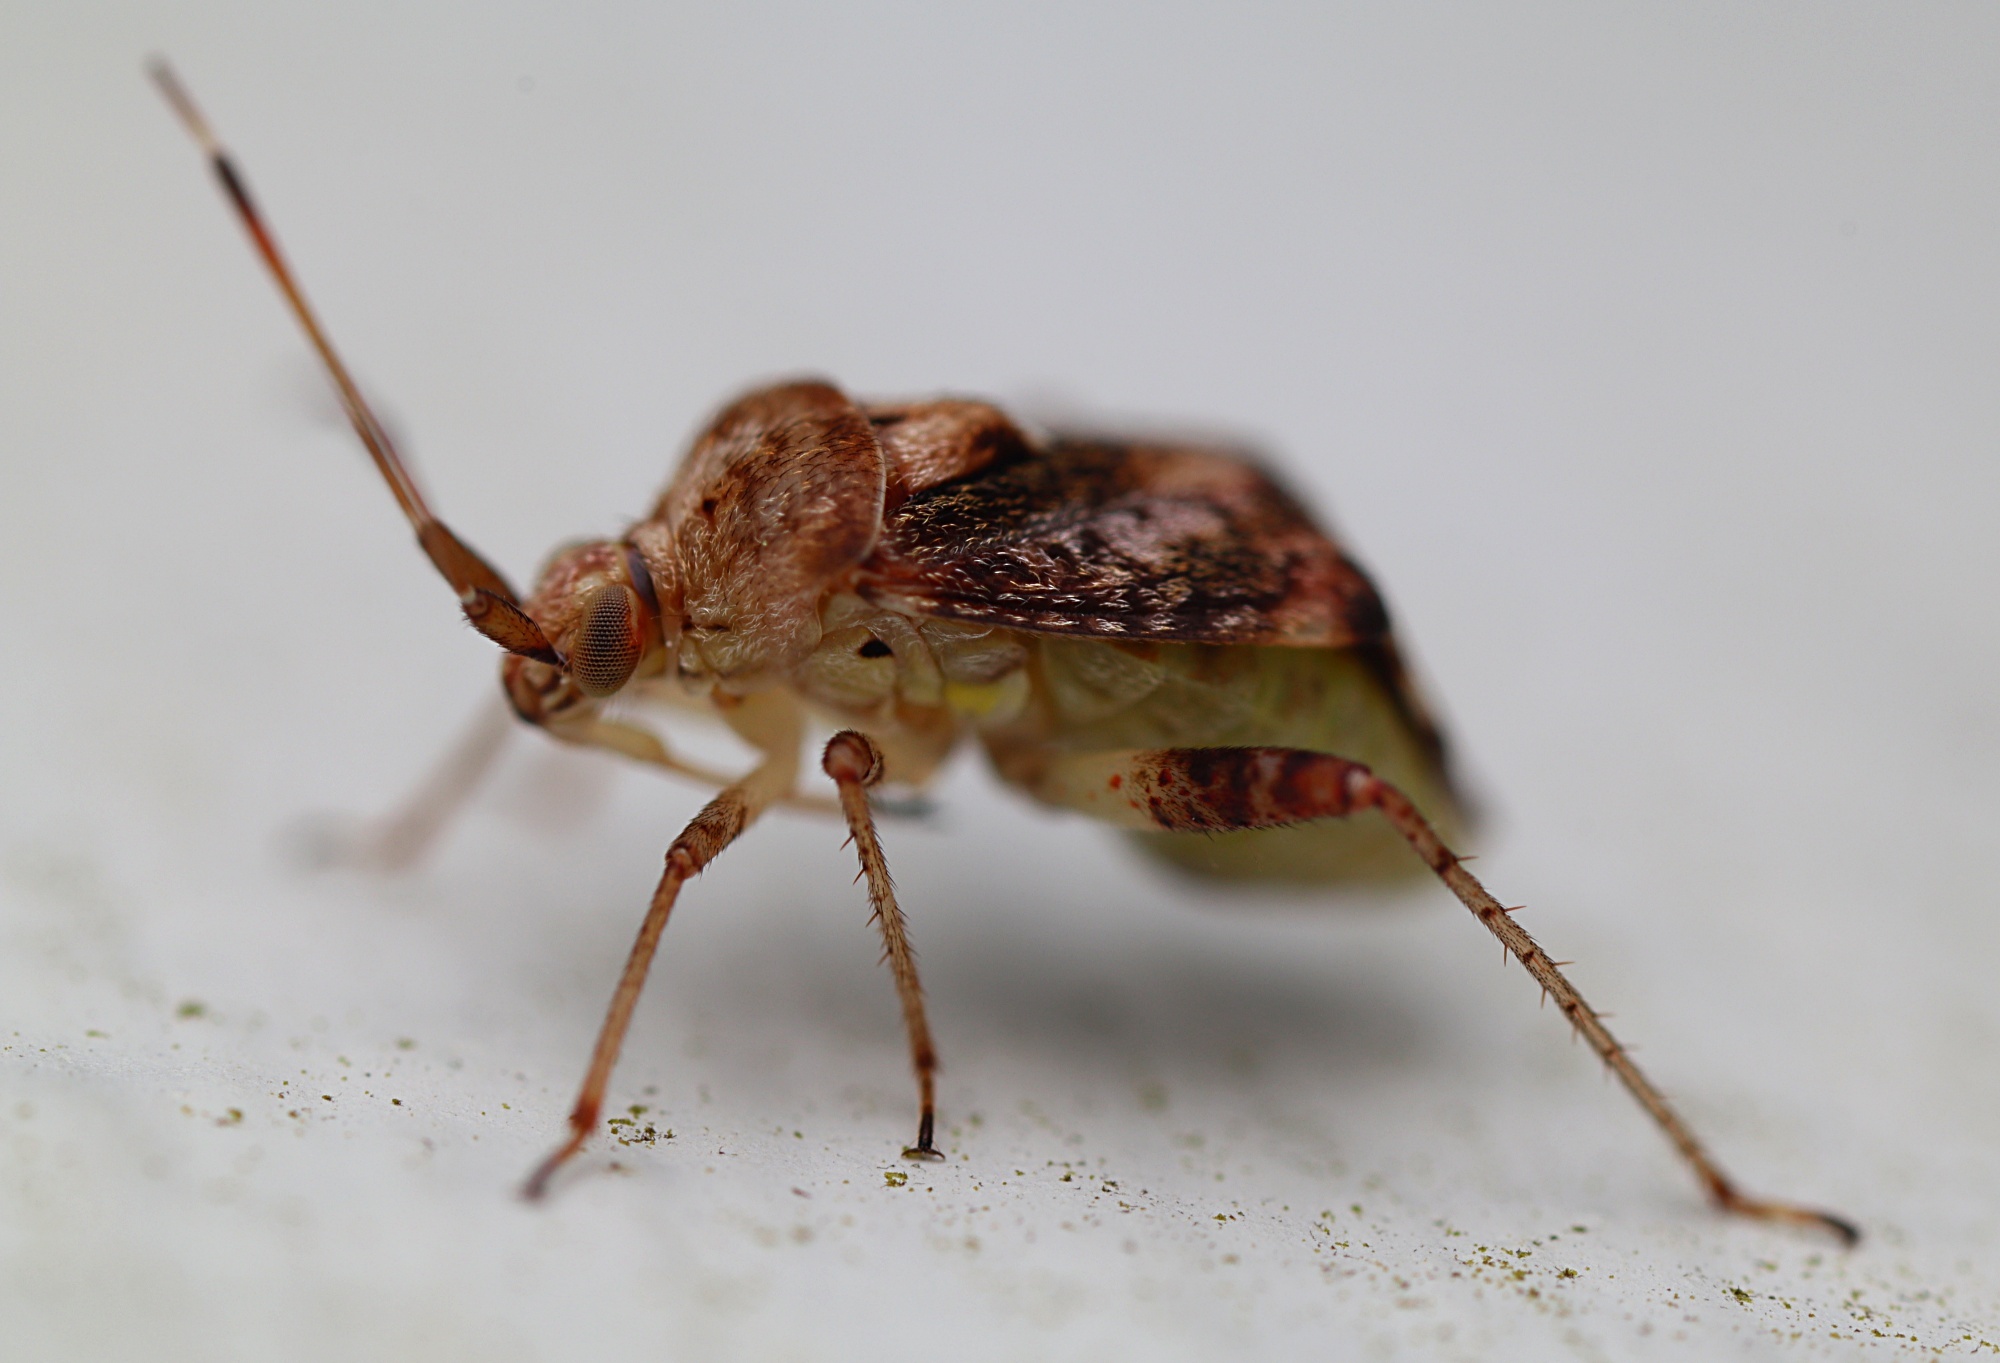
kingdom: Animalia
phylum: Arthropoda
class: Insecta
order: Hemiptera
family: Miridae
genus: Sidnia
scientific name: Sidnia kinbergi
